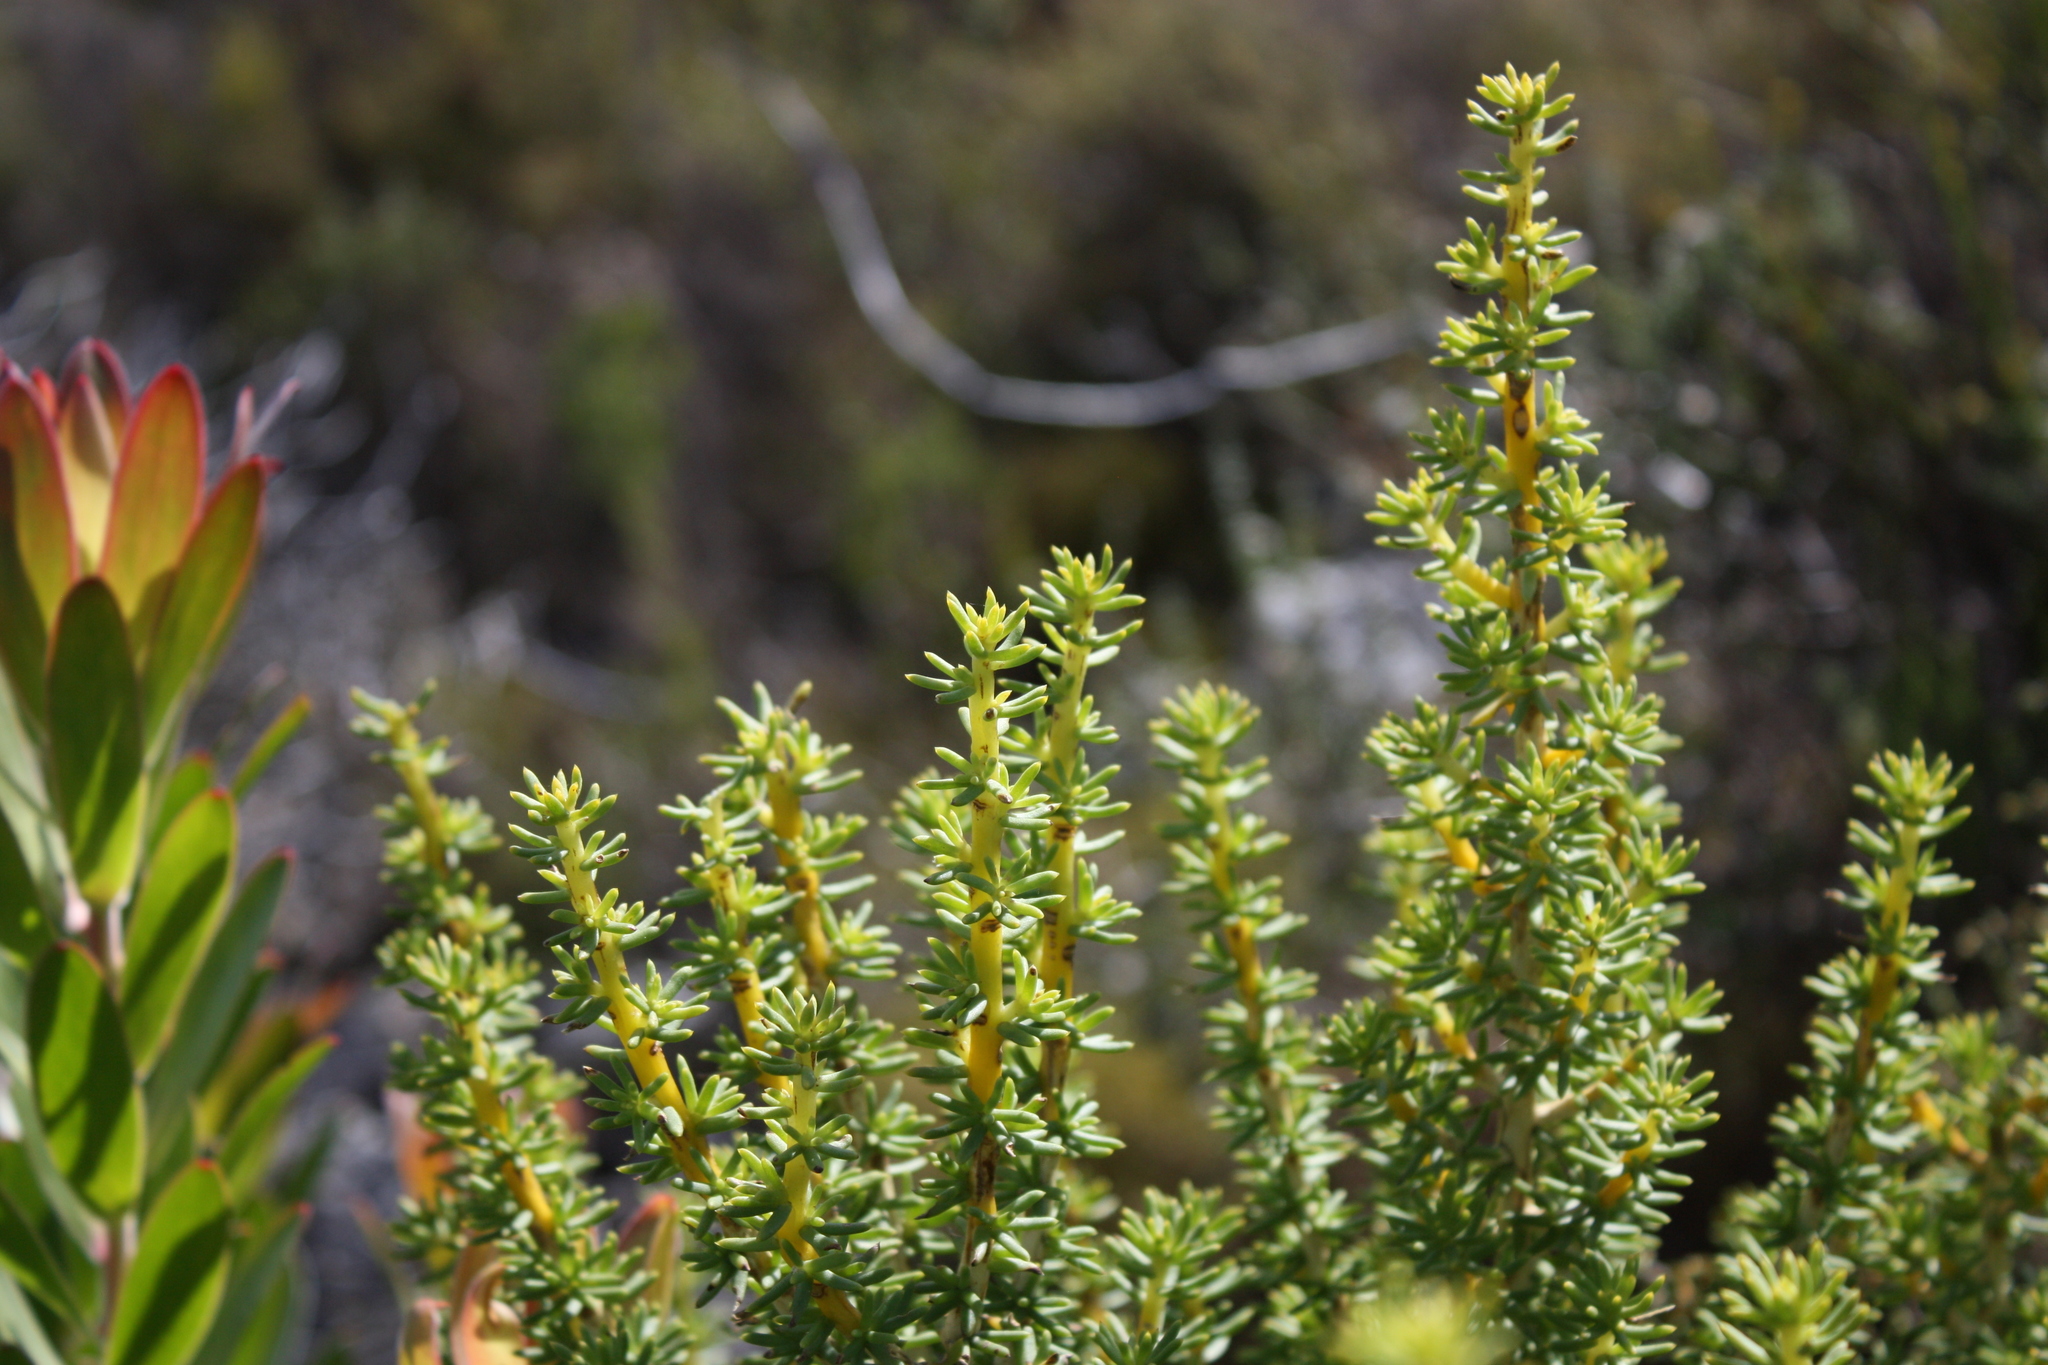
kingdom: Plantae
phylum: Tracheophyta
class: Magnoliopsida
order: Fabales
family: Fabaceae
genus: Aspalathus
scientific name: Aspalathus capensis
